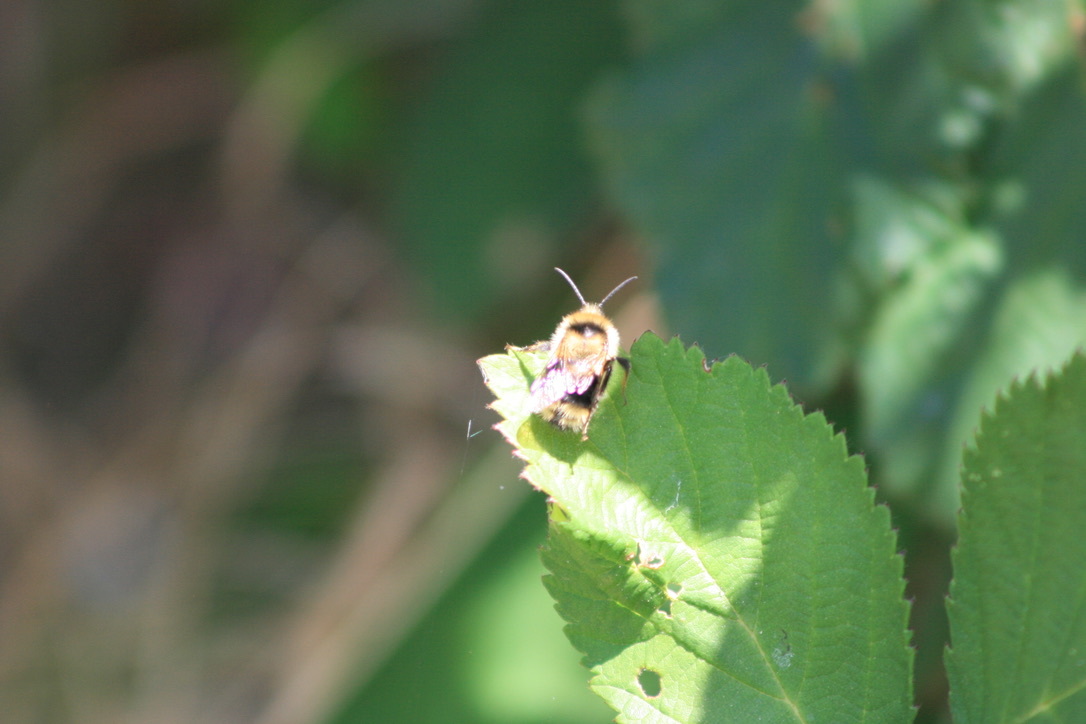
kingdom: Animalia
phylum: Arthropoda
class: Insecta
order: Hymenoptera
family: Apidae
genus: Bombus
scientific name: Bombus melanopygus
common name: Black tail bumble bee
